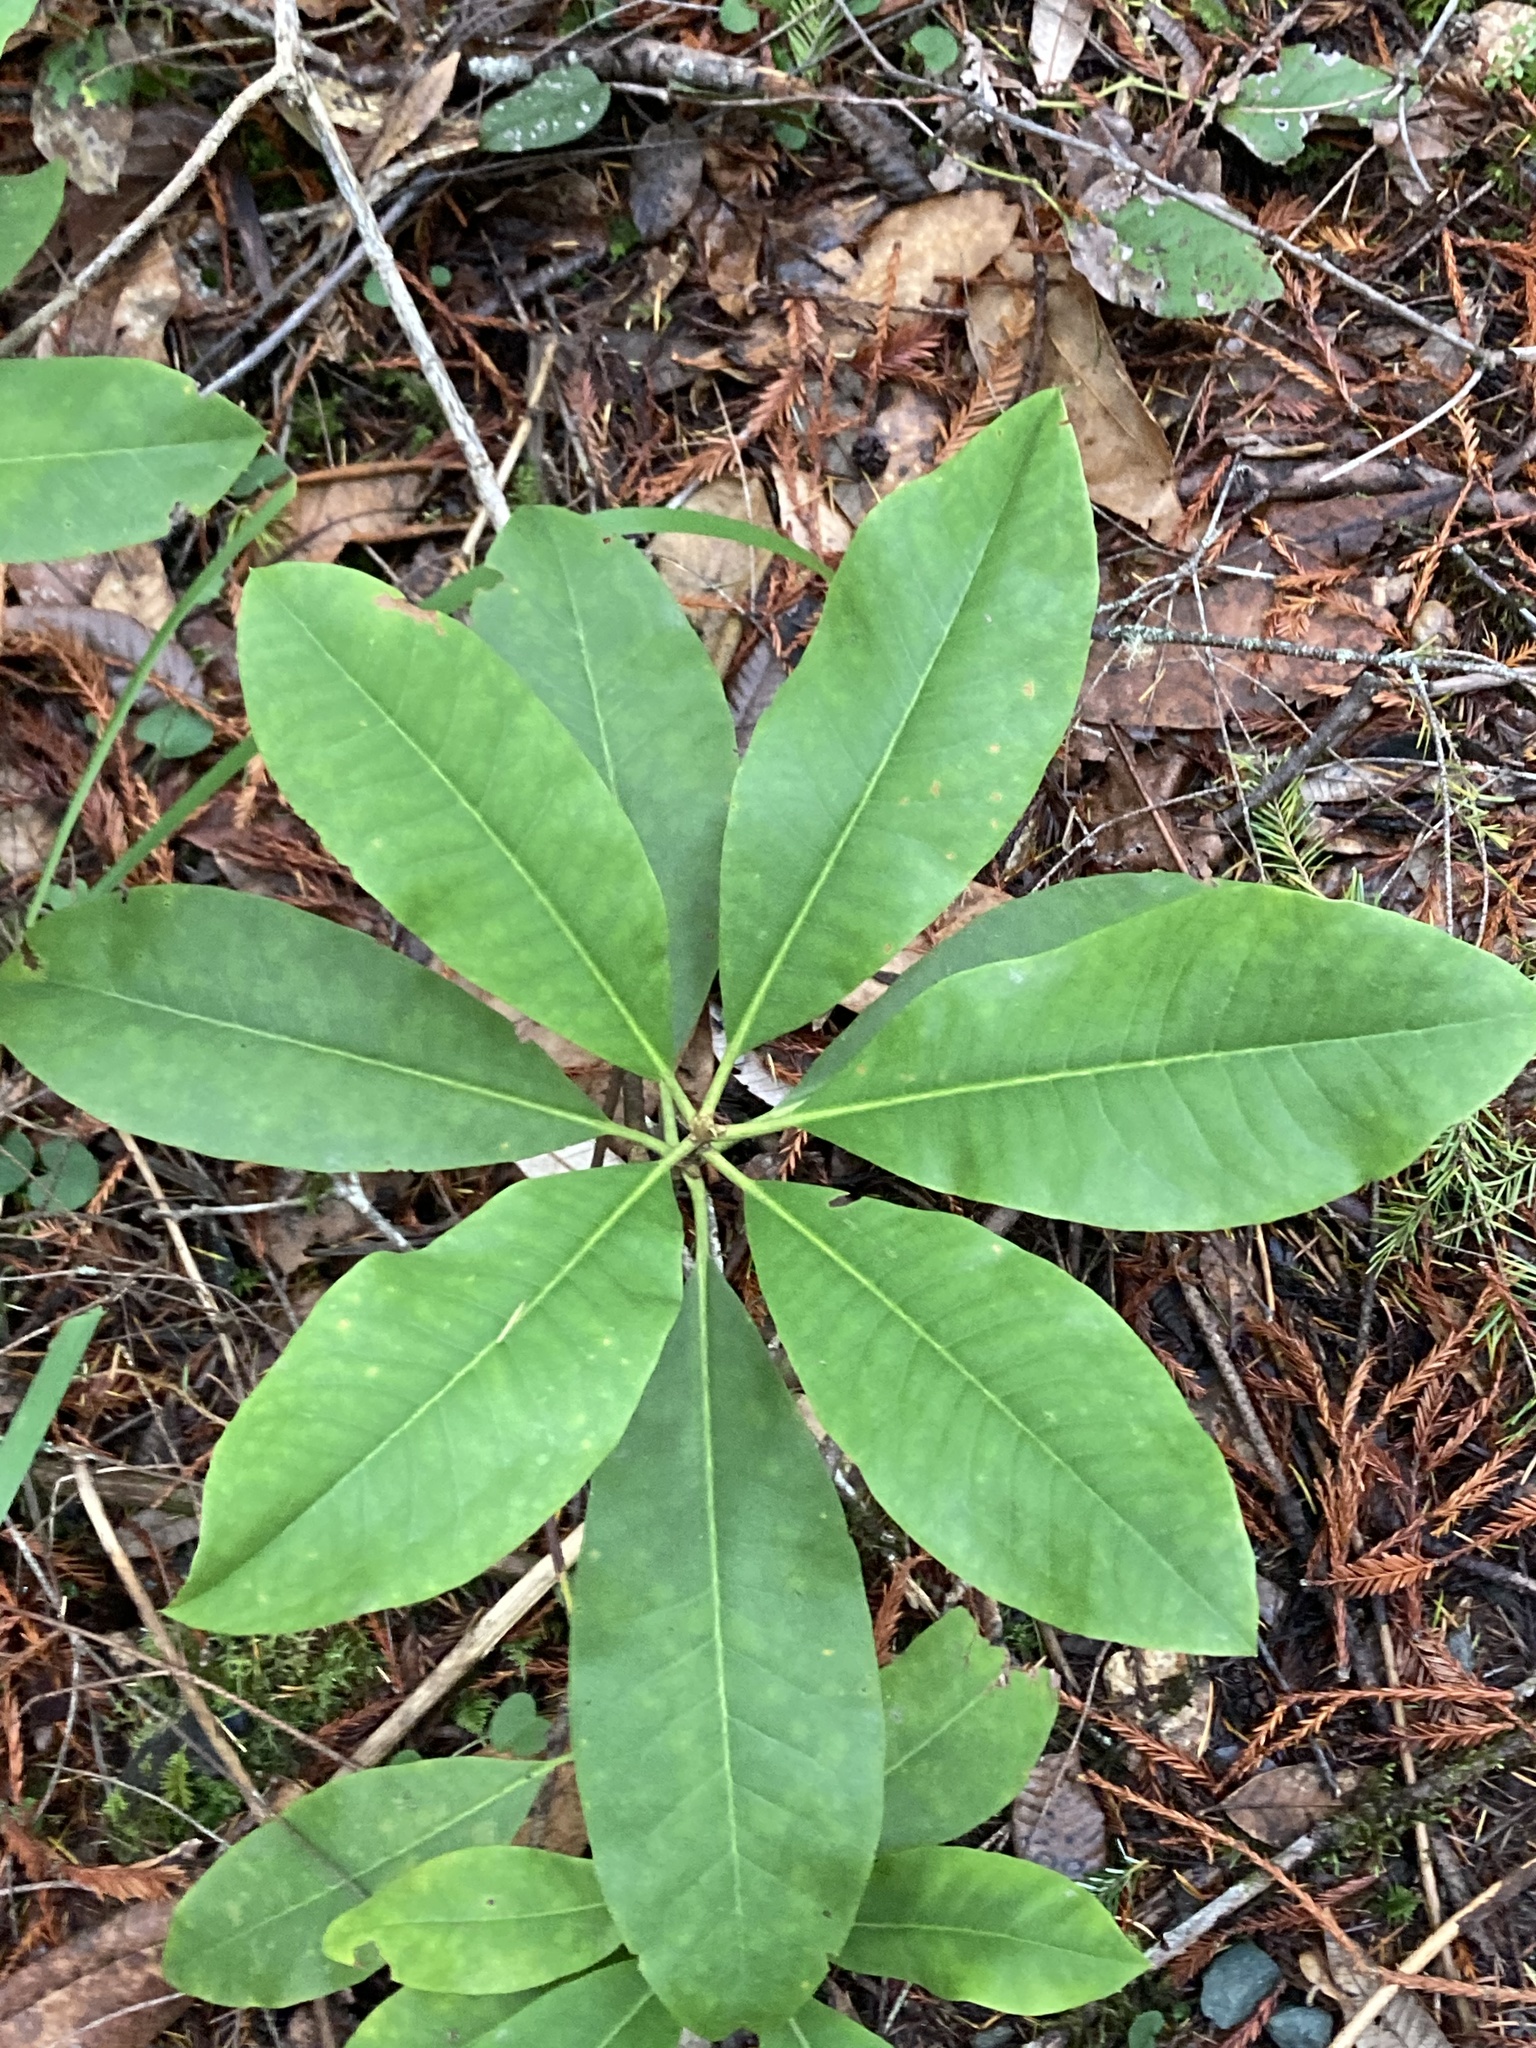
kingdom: Plantae
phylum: Tracheophyta
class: Magnoliopsida
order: Ericales
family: Ericaceae
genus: Rhododendron
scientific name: Rhododendron macrophyllum
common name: California rose bay
